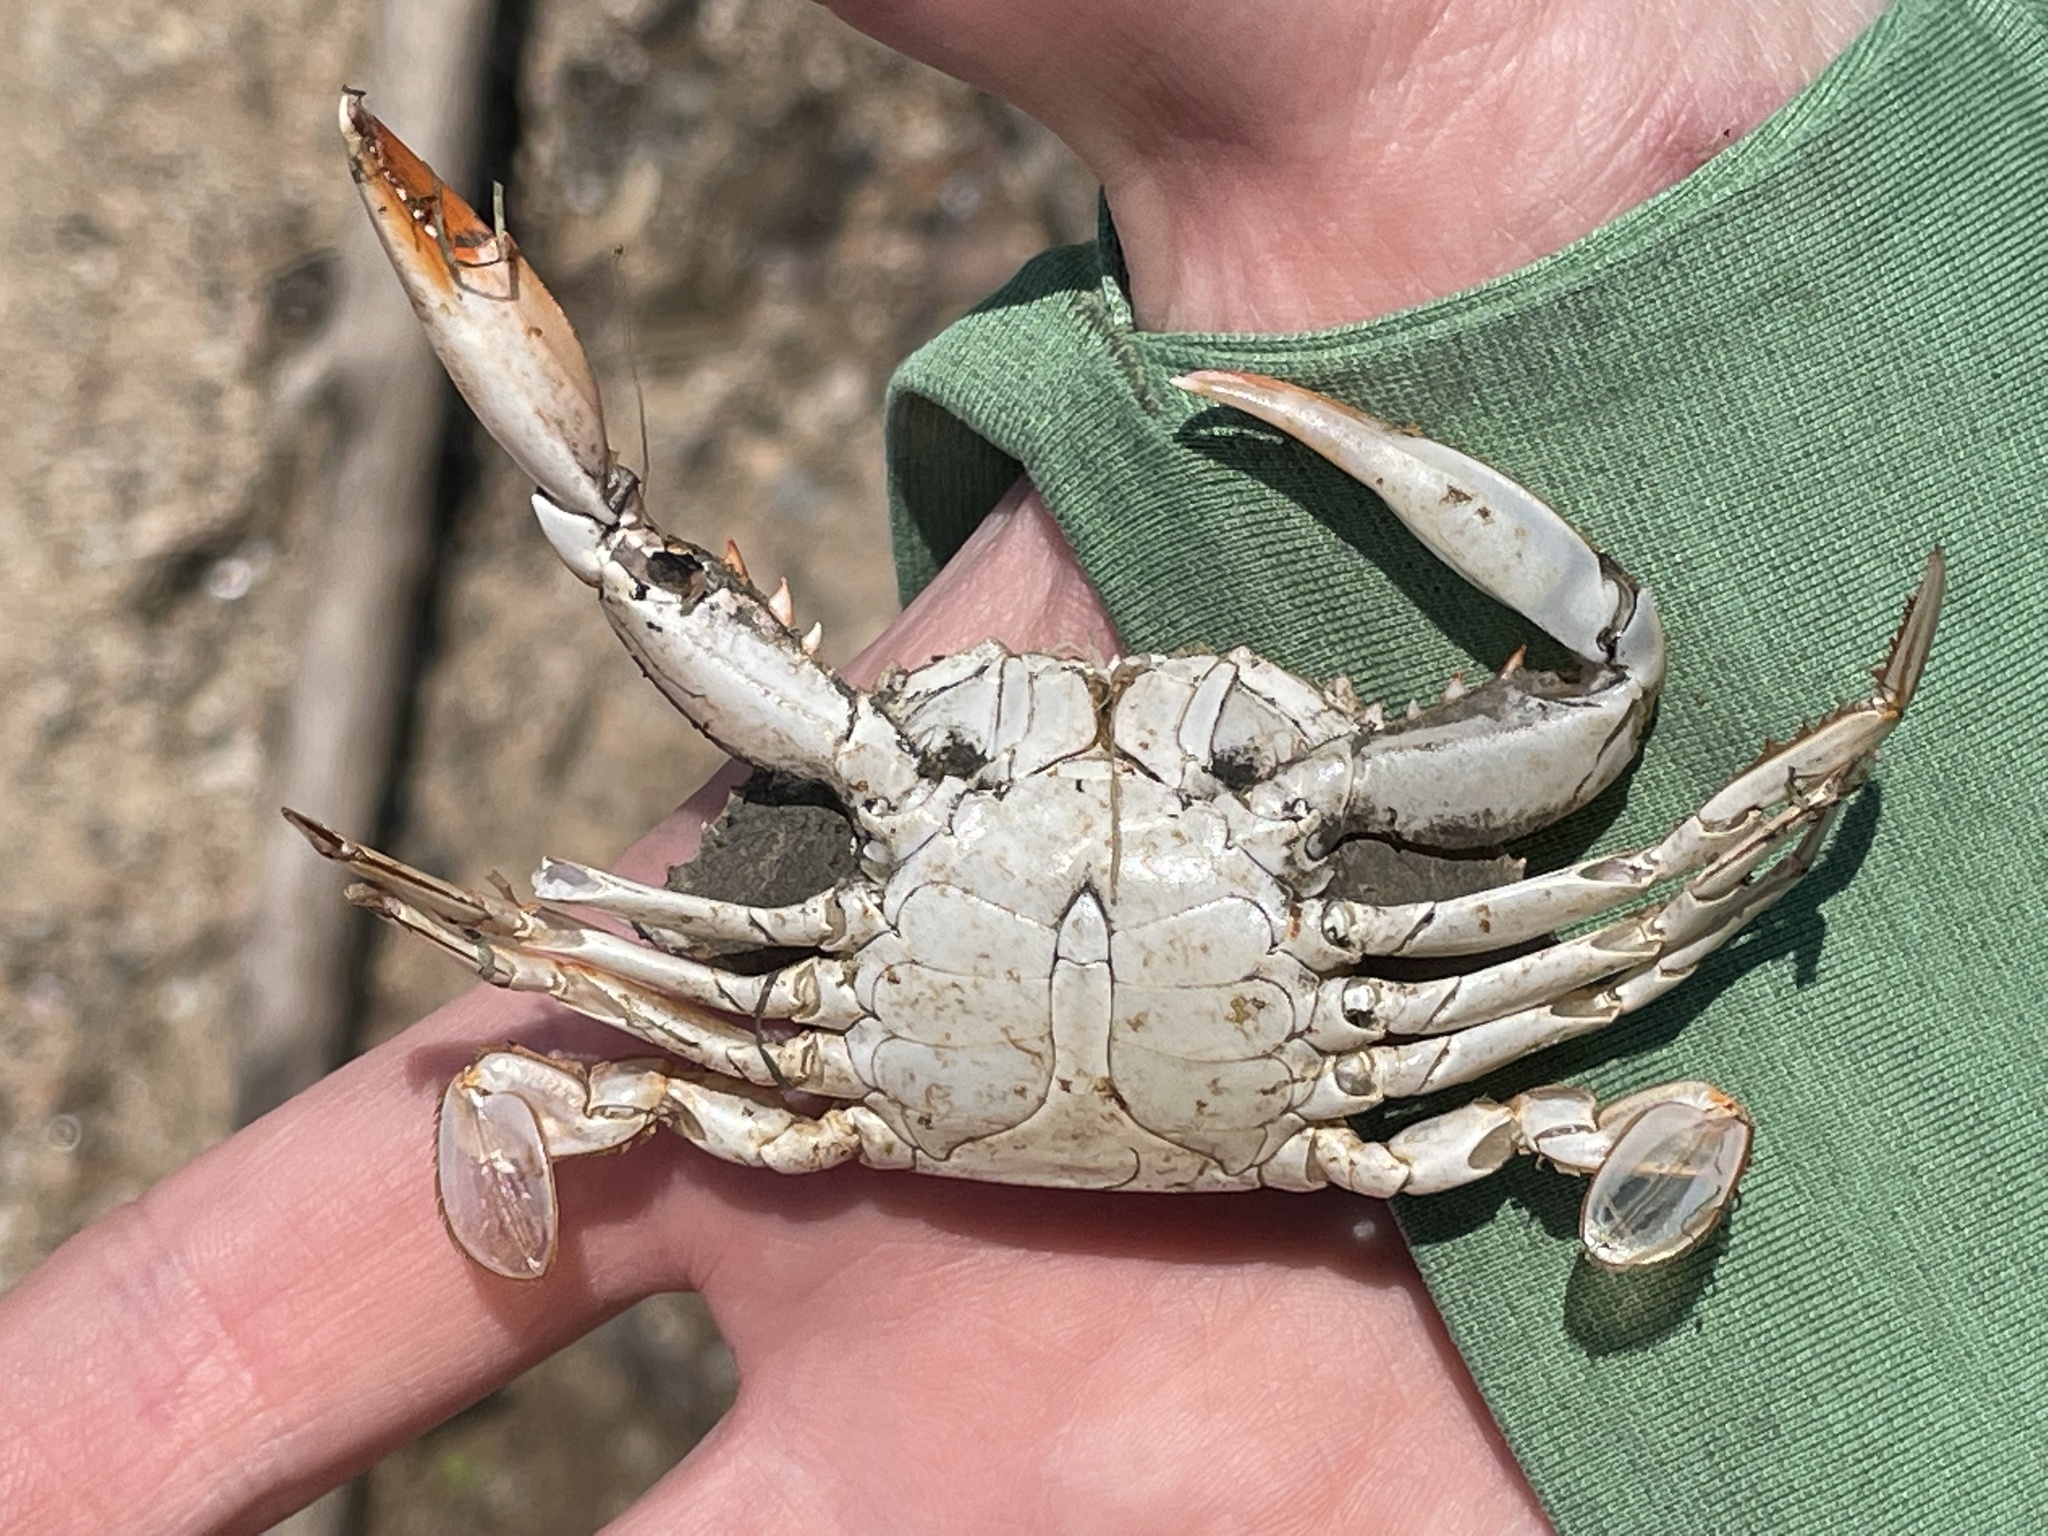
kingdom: Animalia
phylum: Arthropoda
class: Malacostraca
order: Decapoda
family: Portunidae
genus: Callinectes
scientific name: Callinectes sapidus
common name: Blue crab
